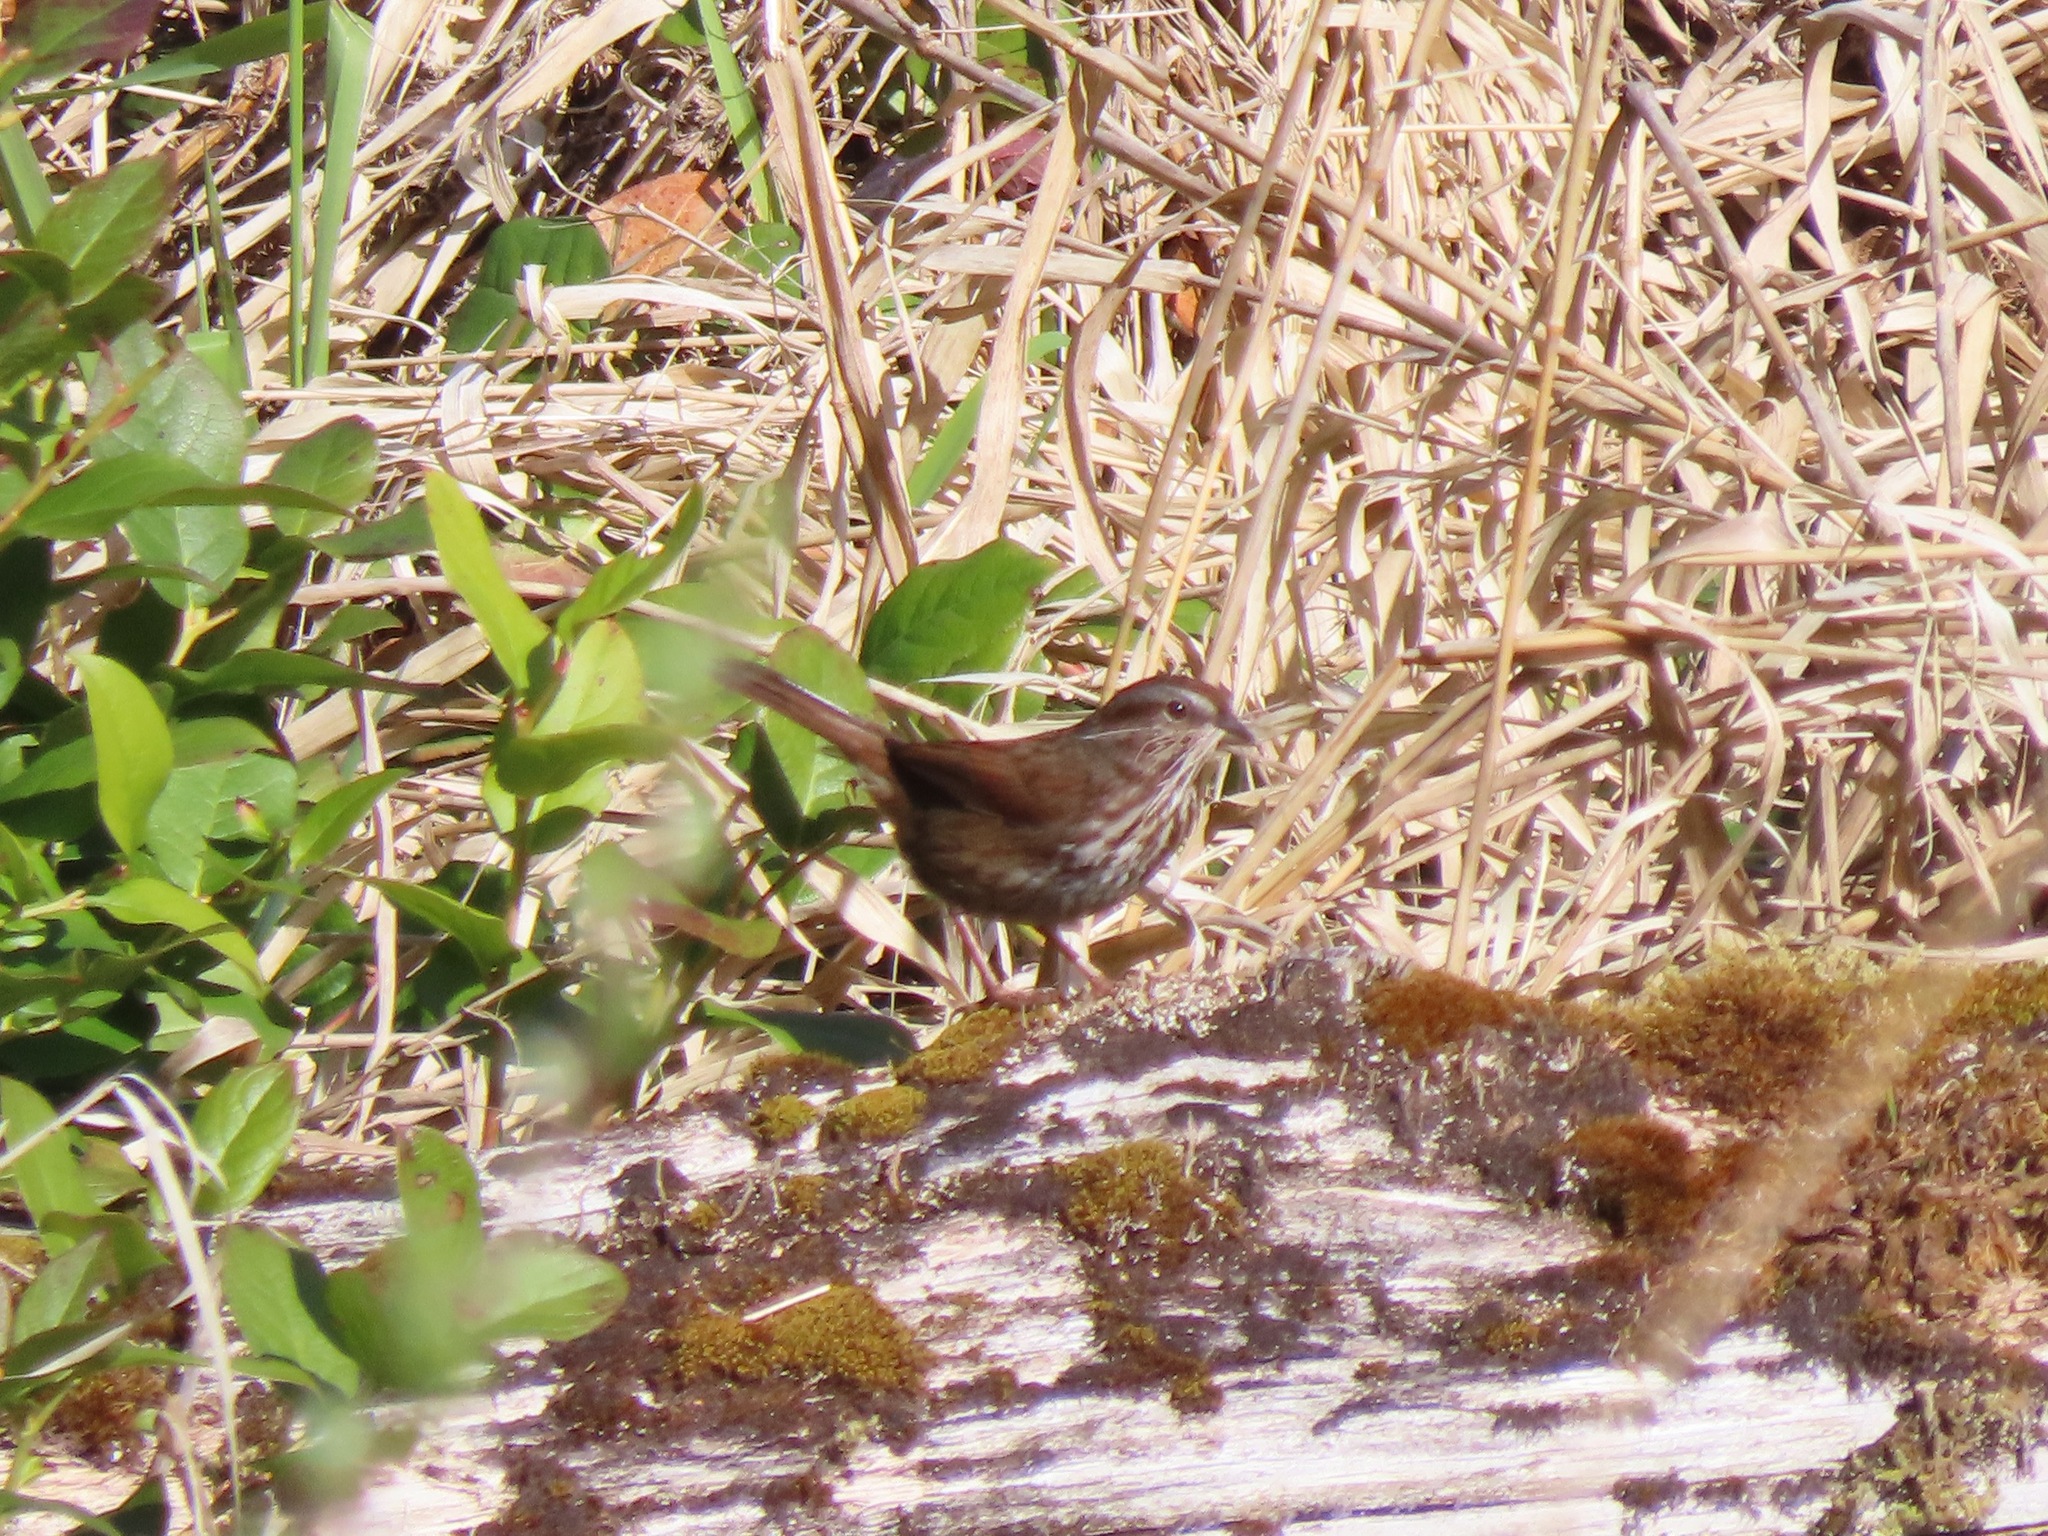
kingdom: Animalia
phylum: Chordata
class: Aves
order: Passeriformes
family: Passerellidae
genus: Melospiza
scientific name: Melospiza melodia
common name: Song sparrow
